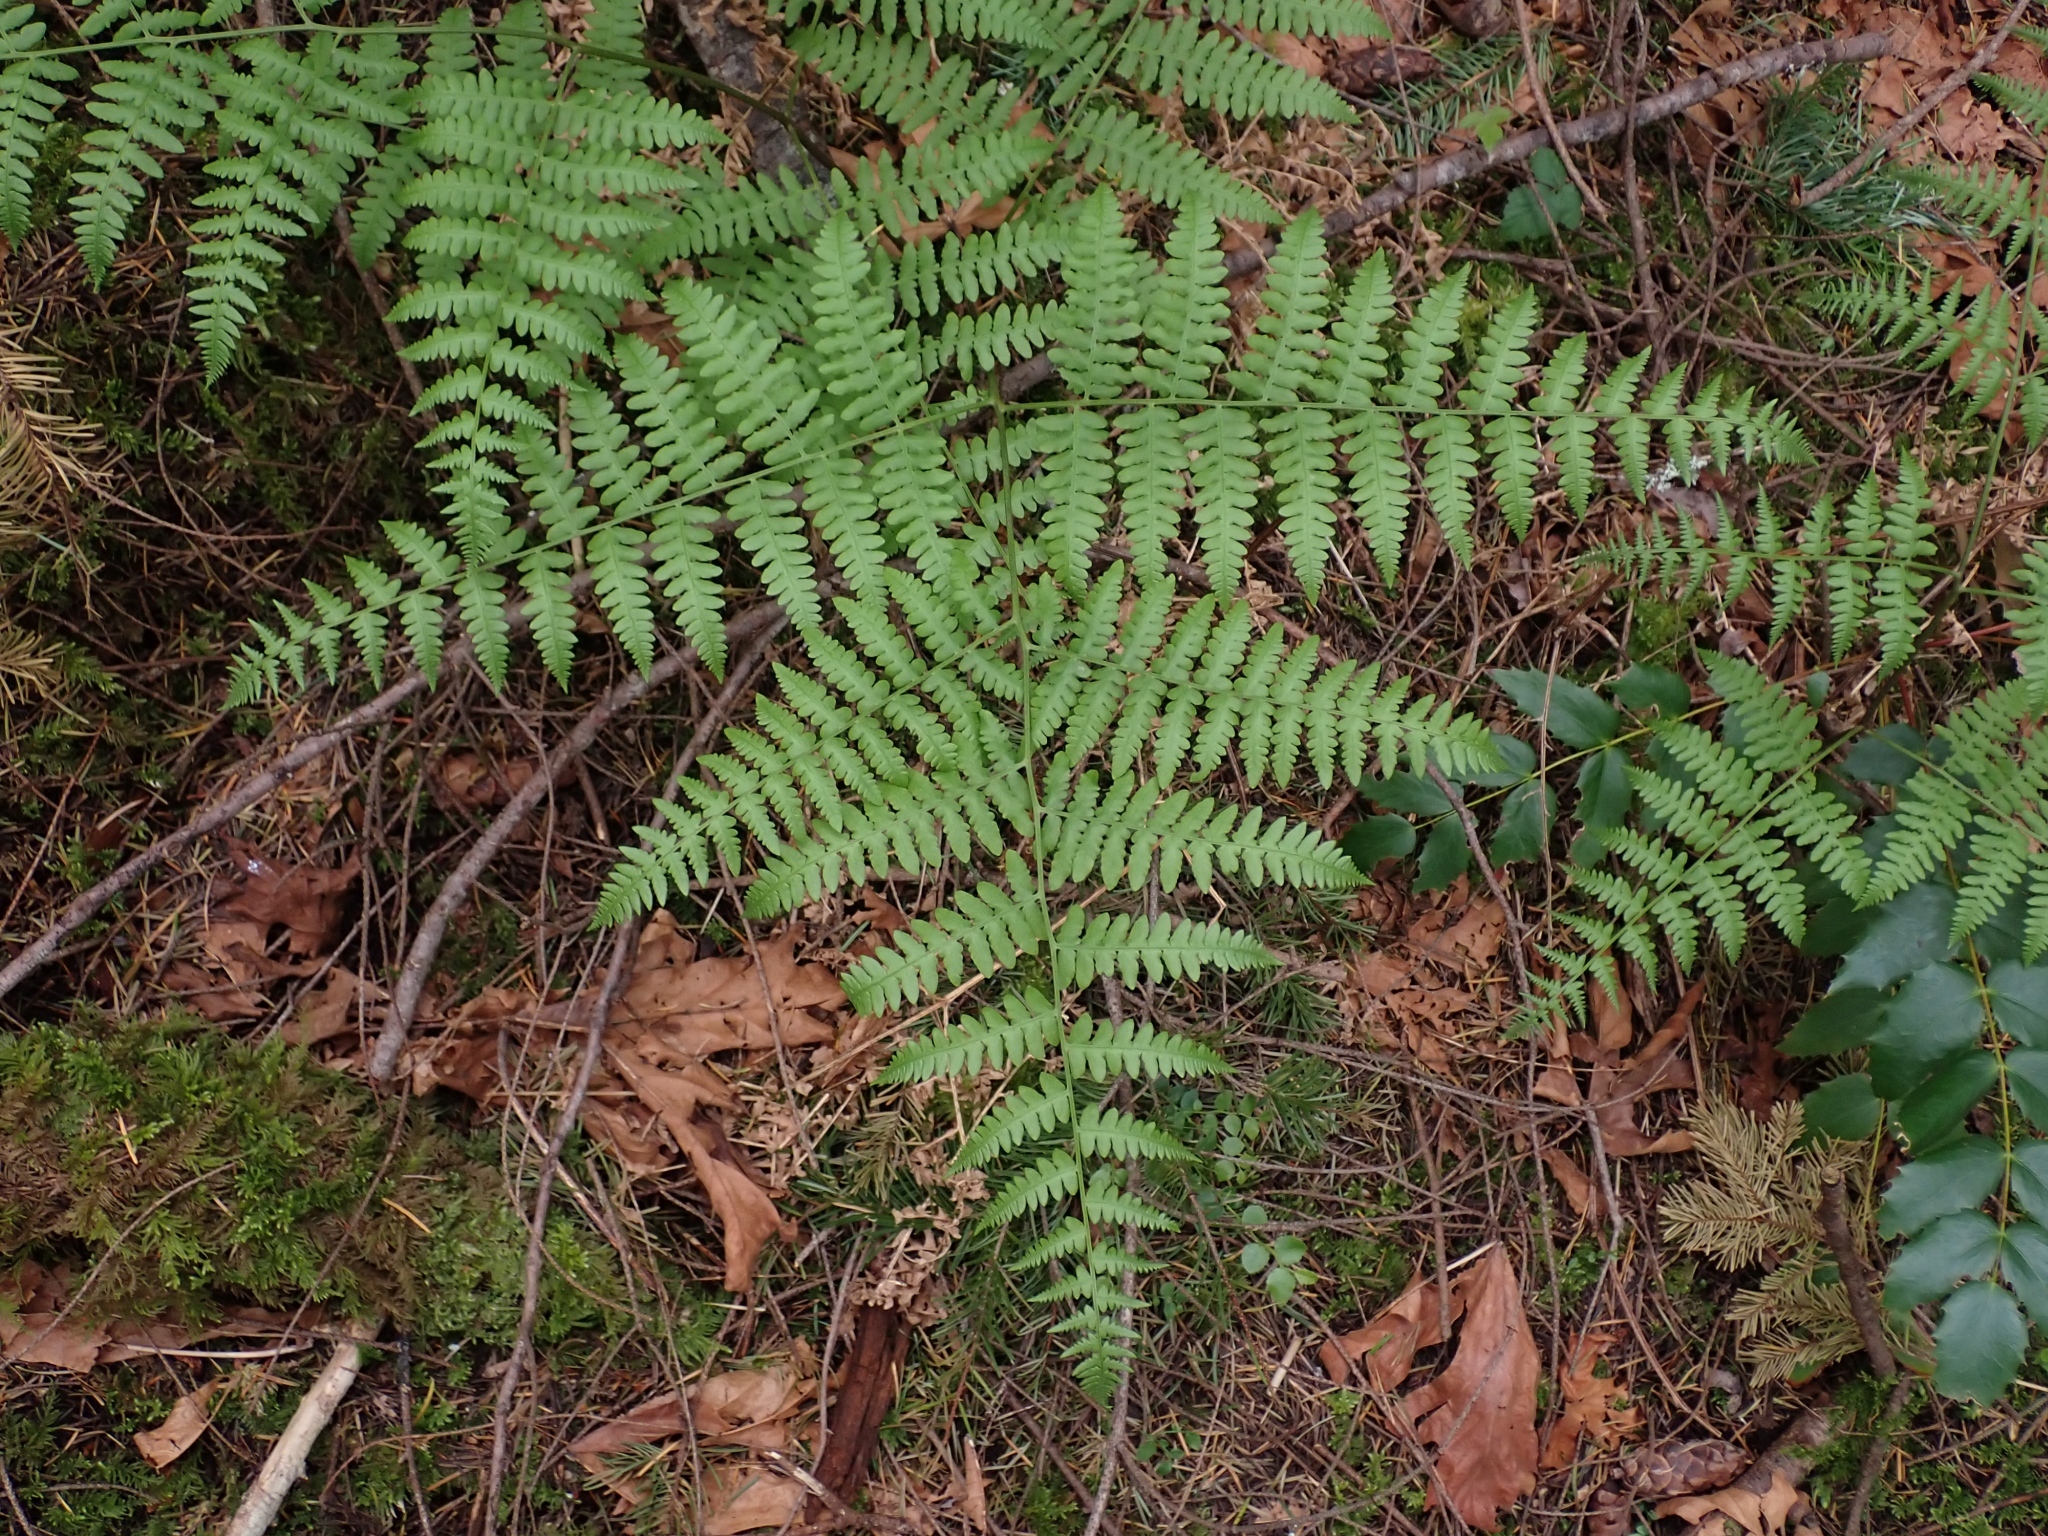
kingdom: Plantae
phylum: Tracheophyta
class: Polypodiopsida
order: Polypodiales
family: Dennstaedtiaceae
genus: Pteridium
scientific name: Pteridium aquilinum
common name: Bracken
